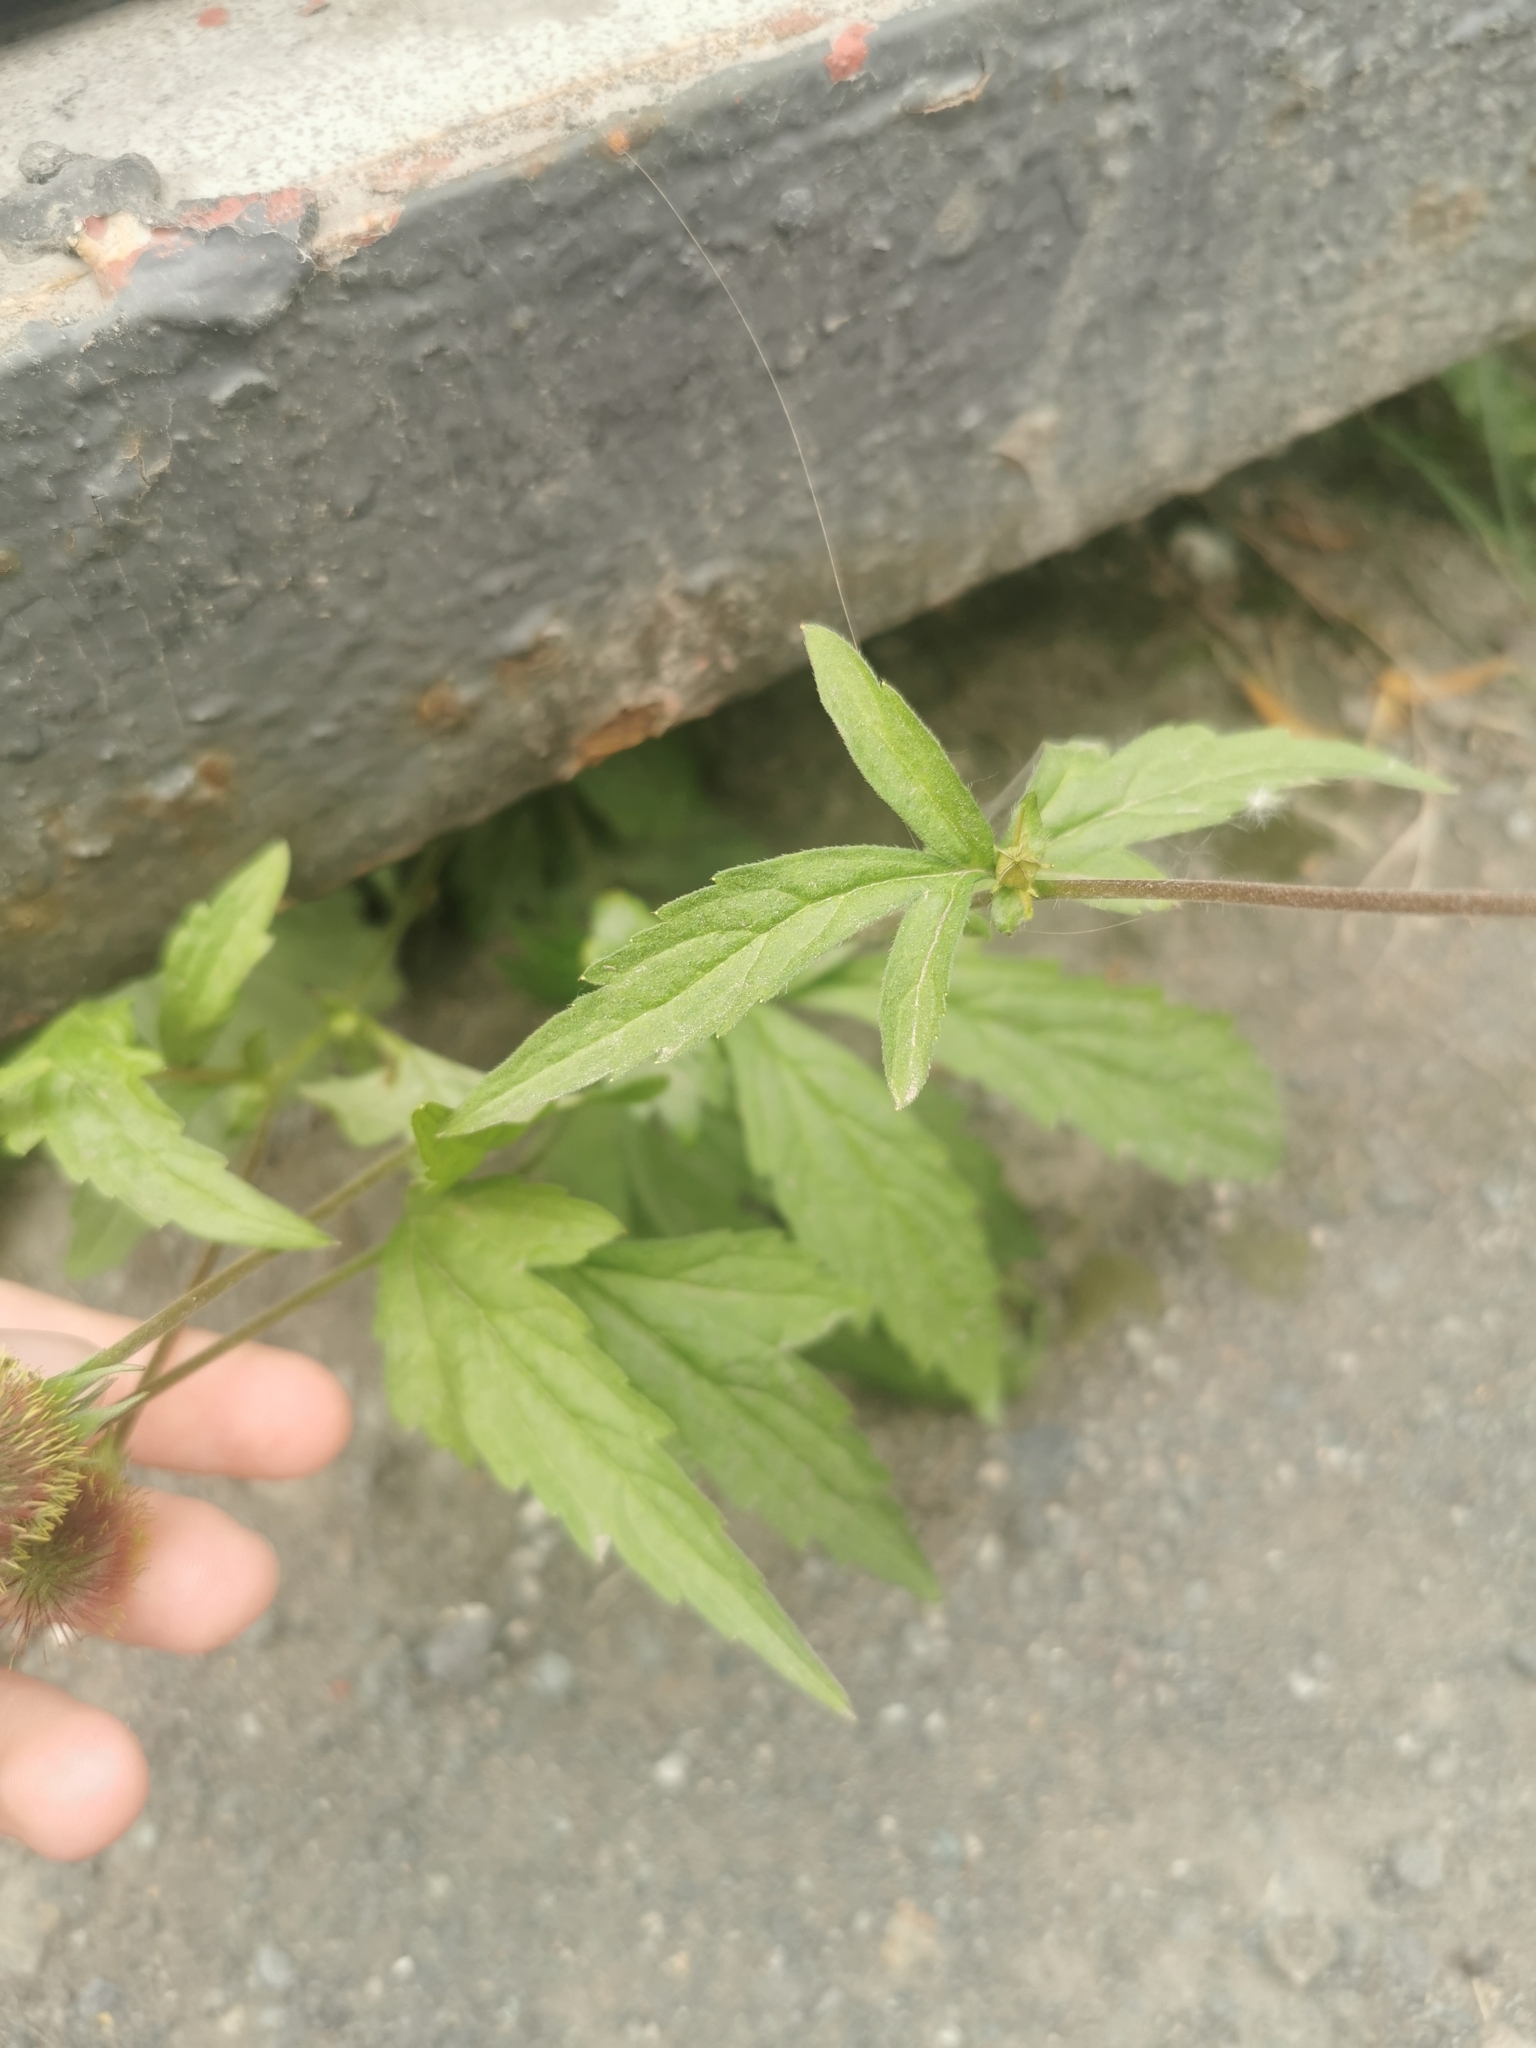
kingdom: Plantae
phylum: Tracheophyta
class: Magnoliopsida
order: Rosales
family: Rosaceae
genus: Geum
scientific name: Geum aleppicum
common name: Yellow avens
